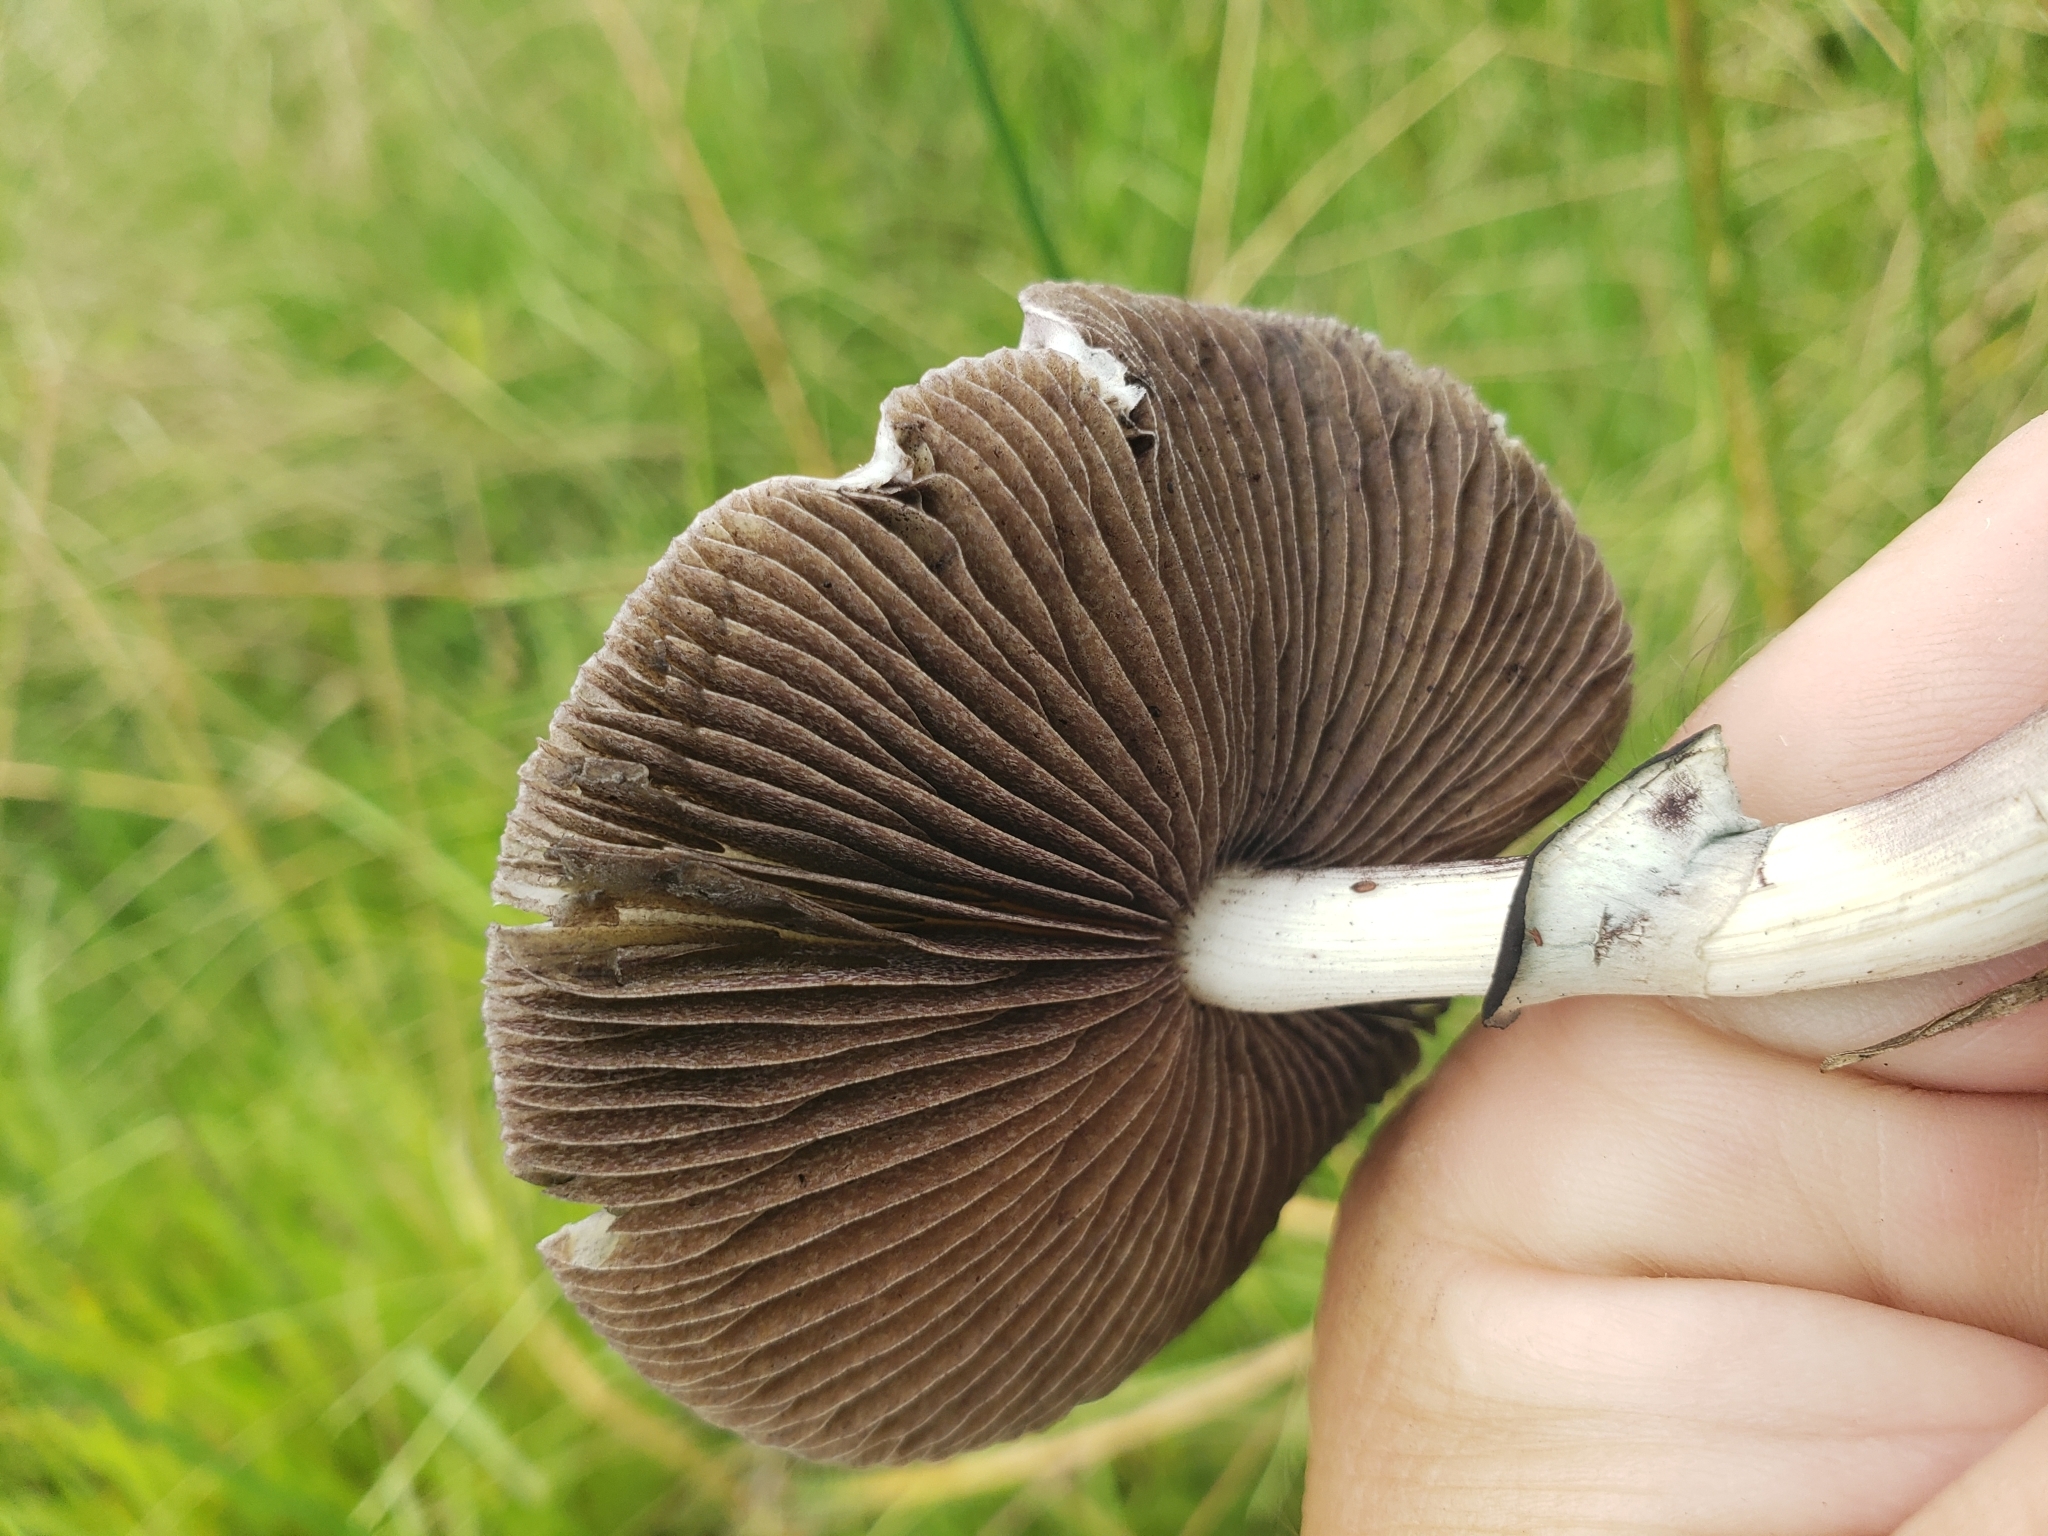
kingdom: Fungi
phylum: Basidiomycota
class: Agaricomycetes
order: Agaricales
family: Hymenogastraceae
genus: Psilocybe
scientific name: Psilocybe cubensis
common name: Golden brownie
